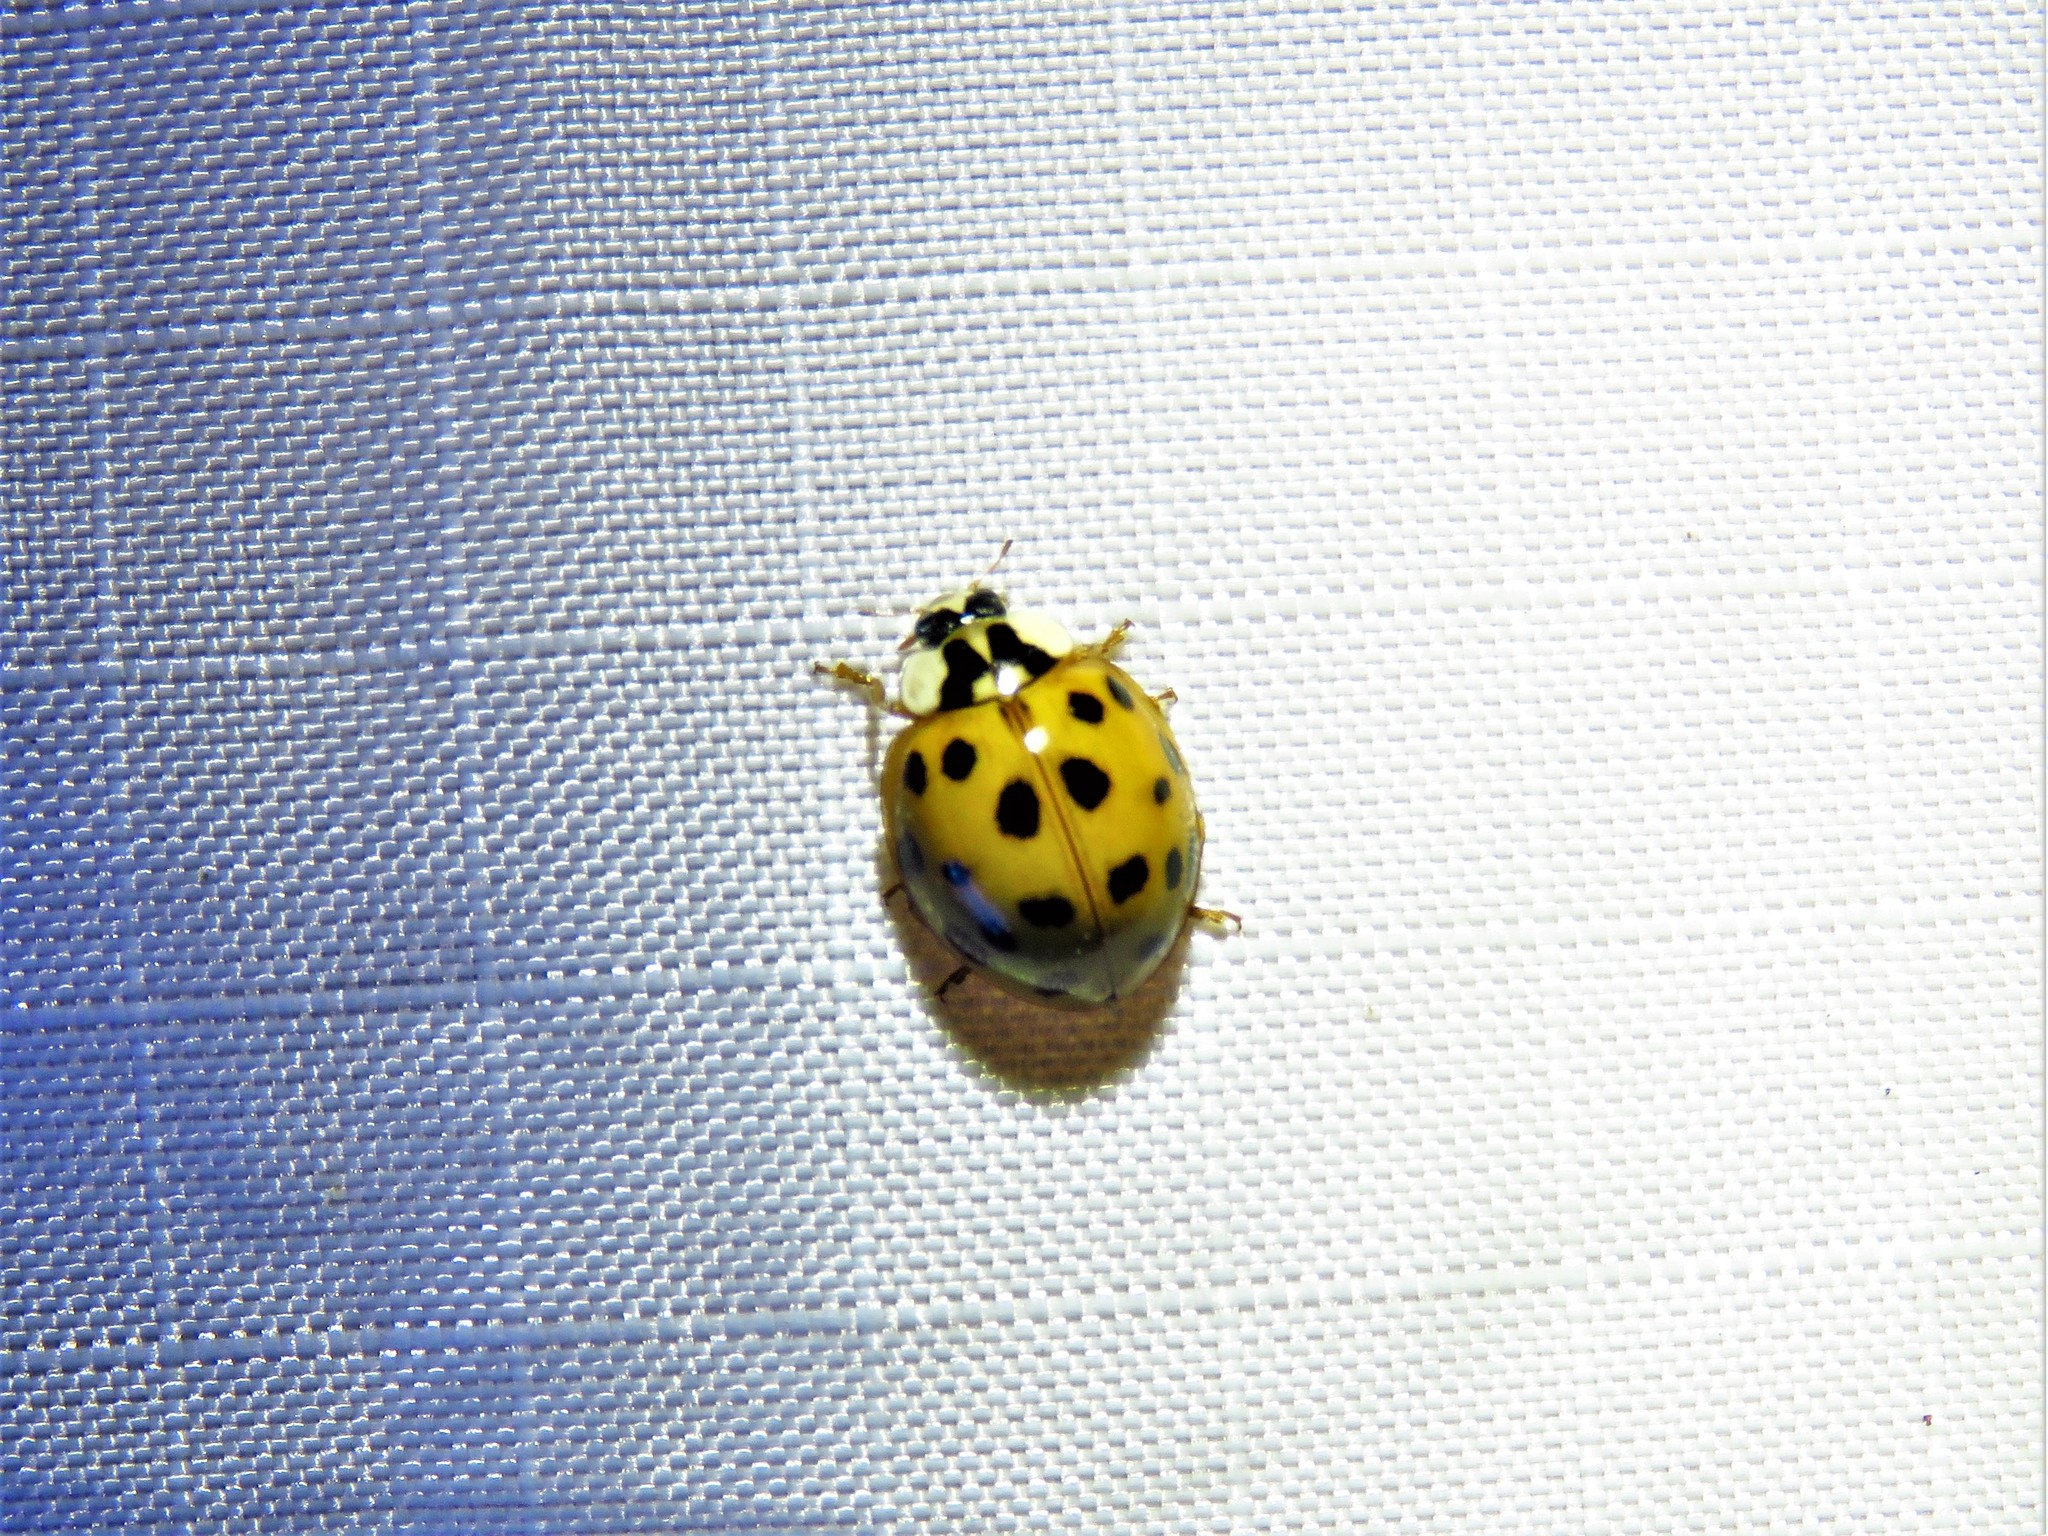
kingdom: Animalia
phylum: Arthropoda
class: Insecta
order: Coleoptera
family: Coccinellidae
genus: Harmonia
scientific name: Harmonia axyridis
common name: Harlequin ladybird
